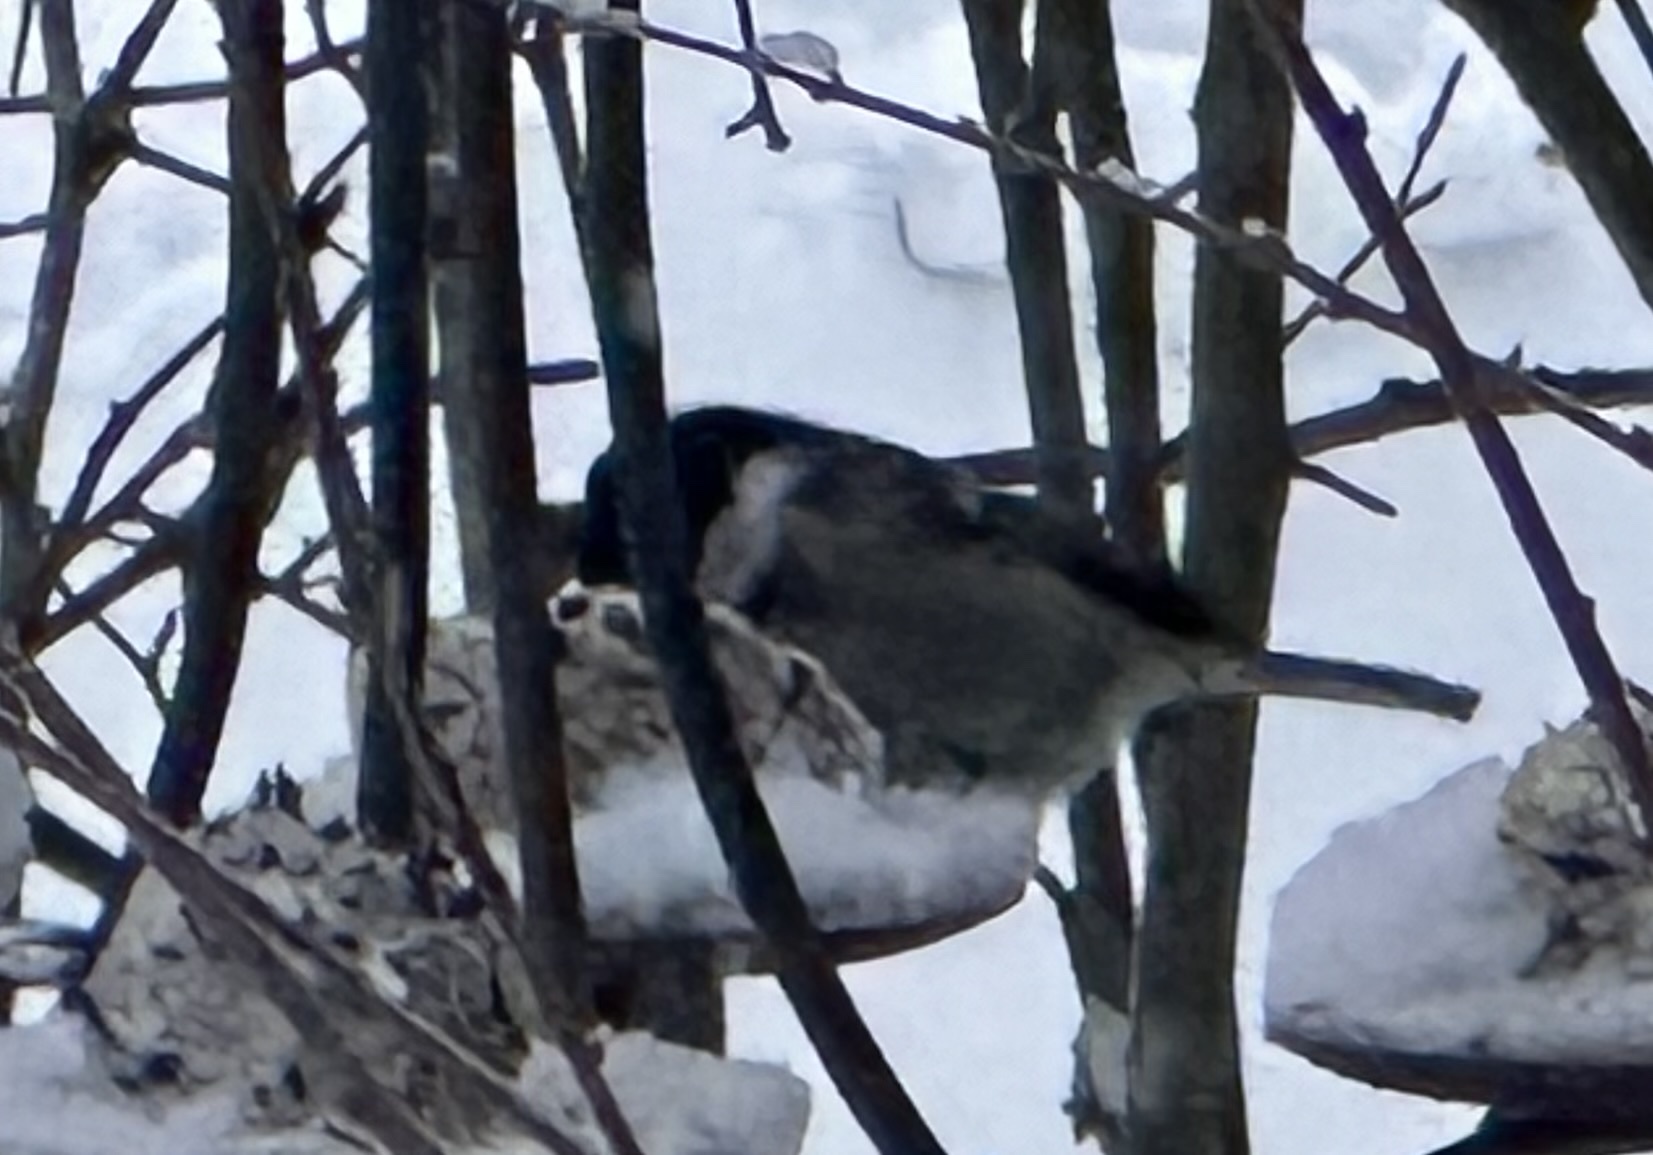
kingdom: Animalia
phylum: Chordata
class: Aves
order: Passeriformes
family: Paridae
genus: Periparus
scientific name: Periparus ater
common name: Coal tit
